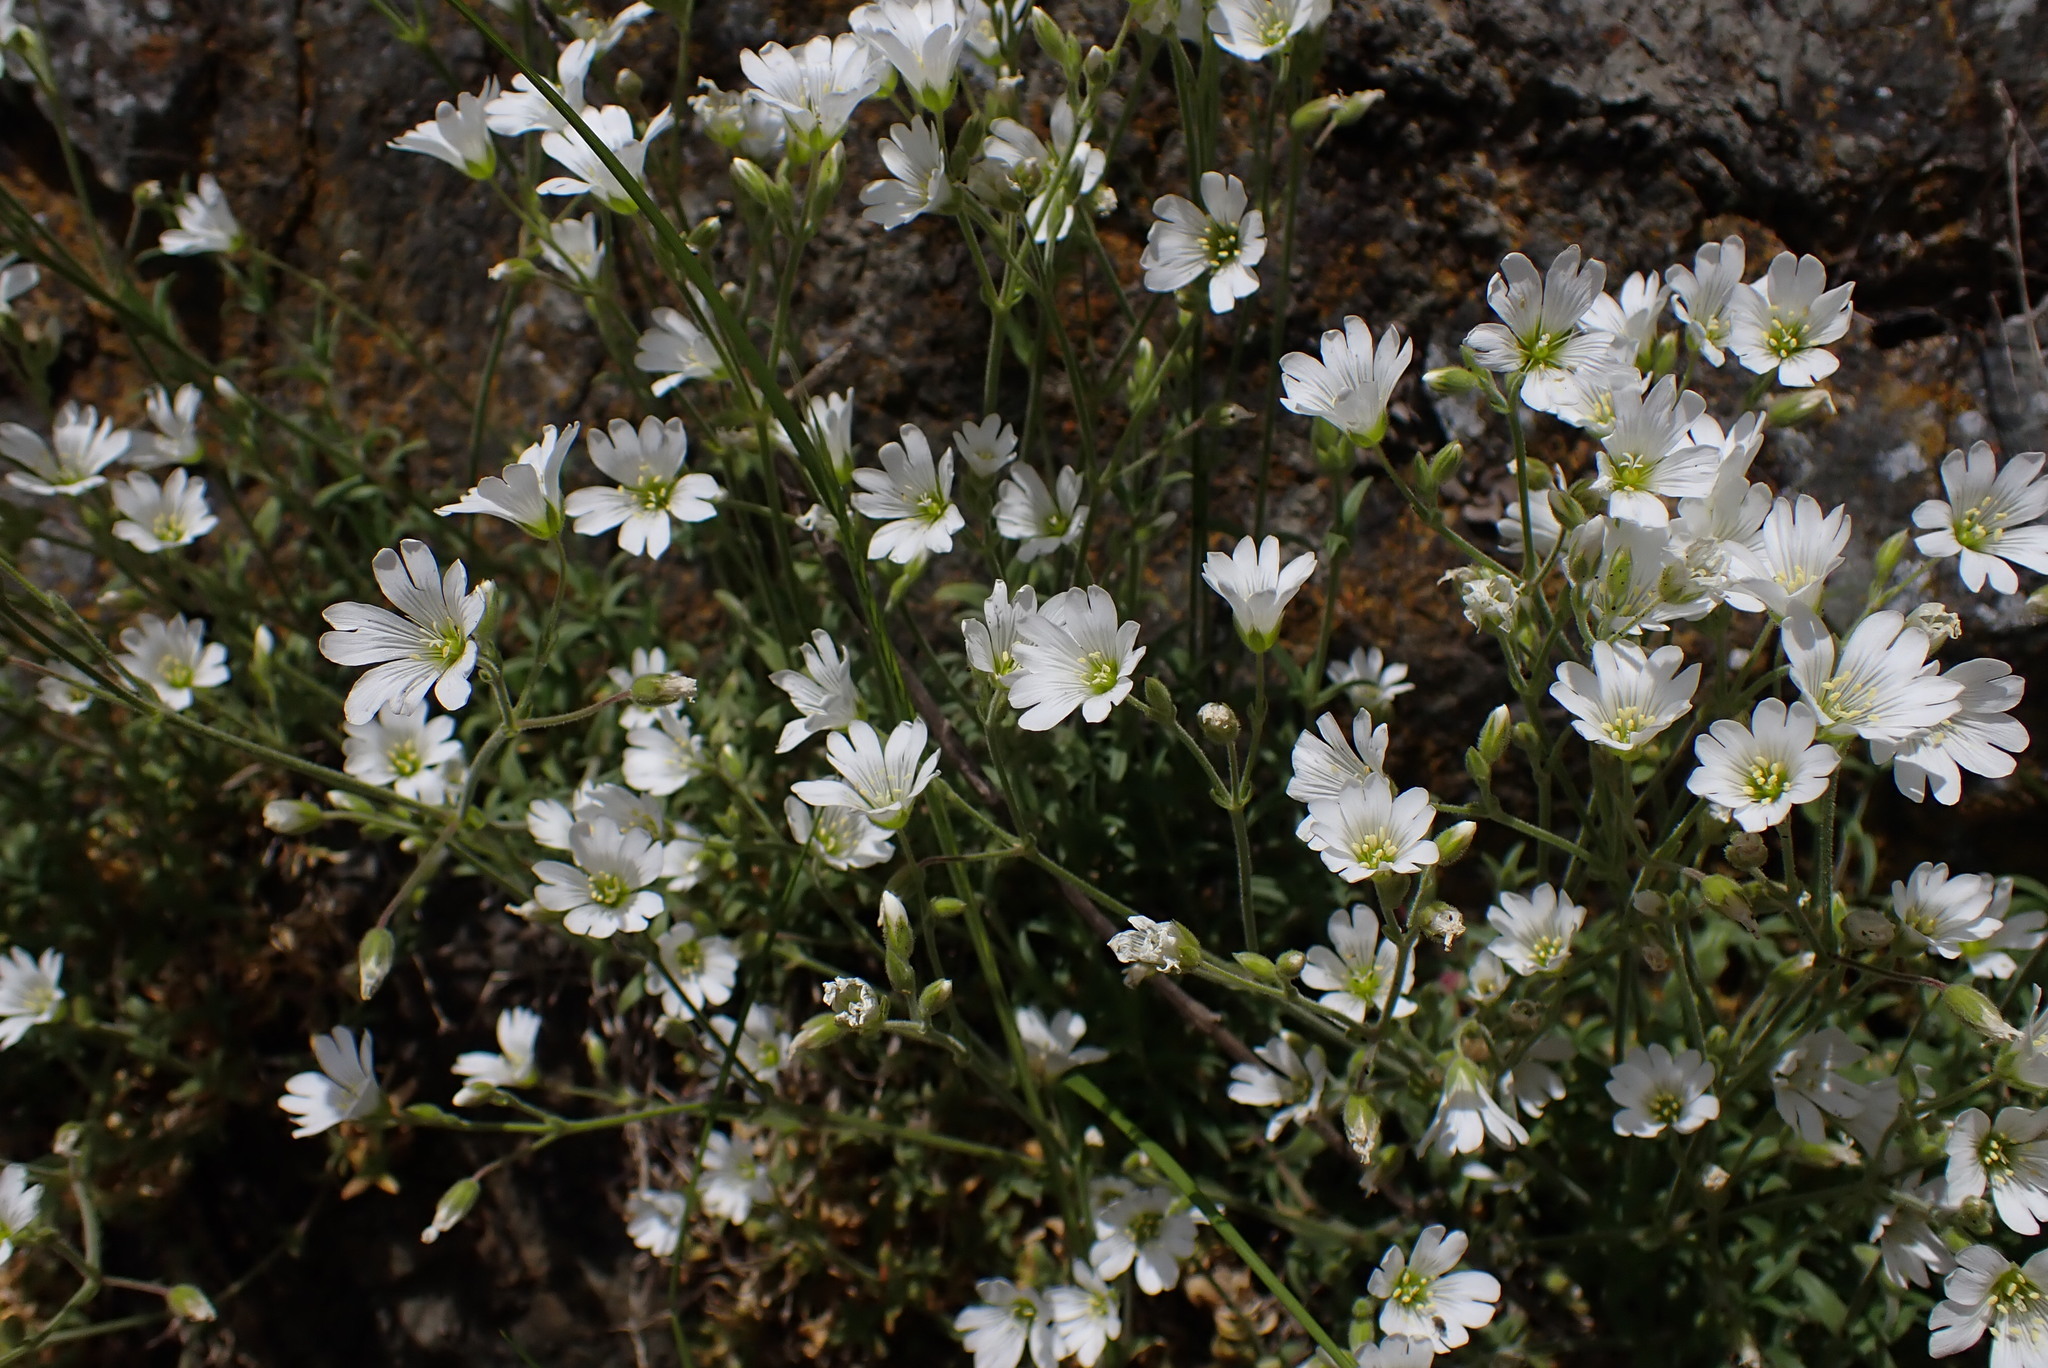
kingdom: Plantae
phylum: Tracheophyta
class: Magnoliopsida
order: Caryophyllales
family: Caryophyllaceae
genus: Cerastium
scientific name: Cerastium arvense
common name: Field mouse-ear
